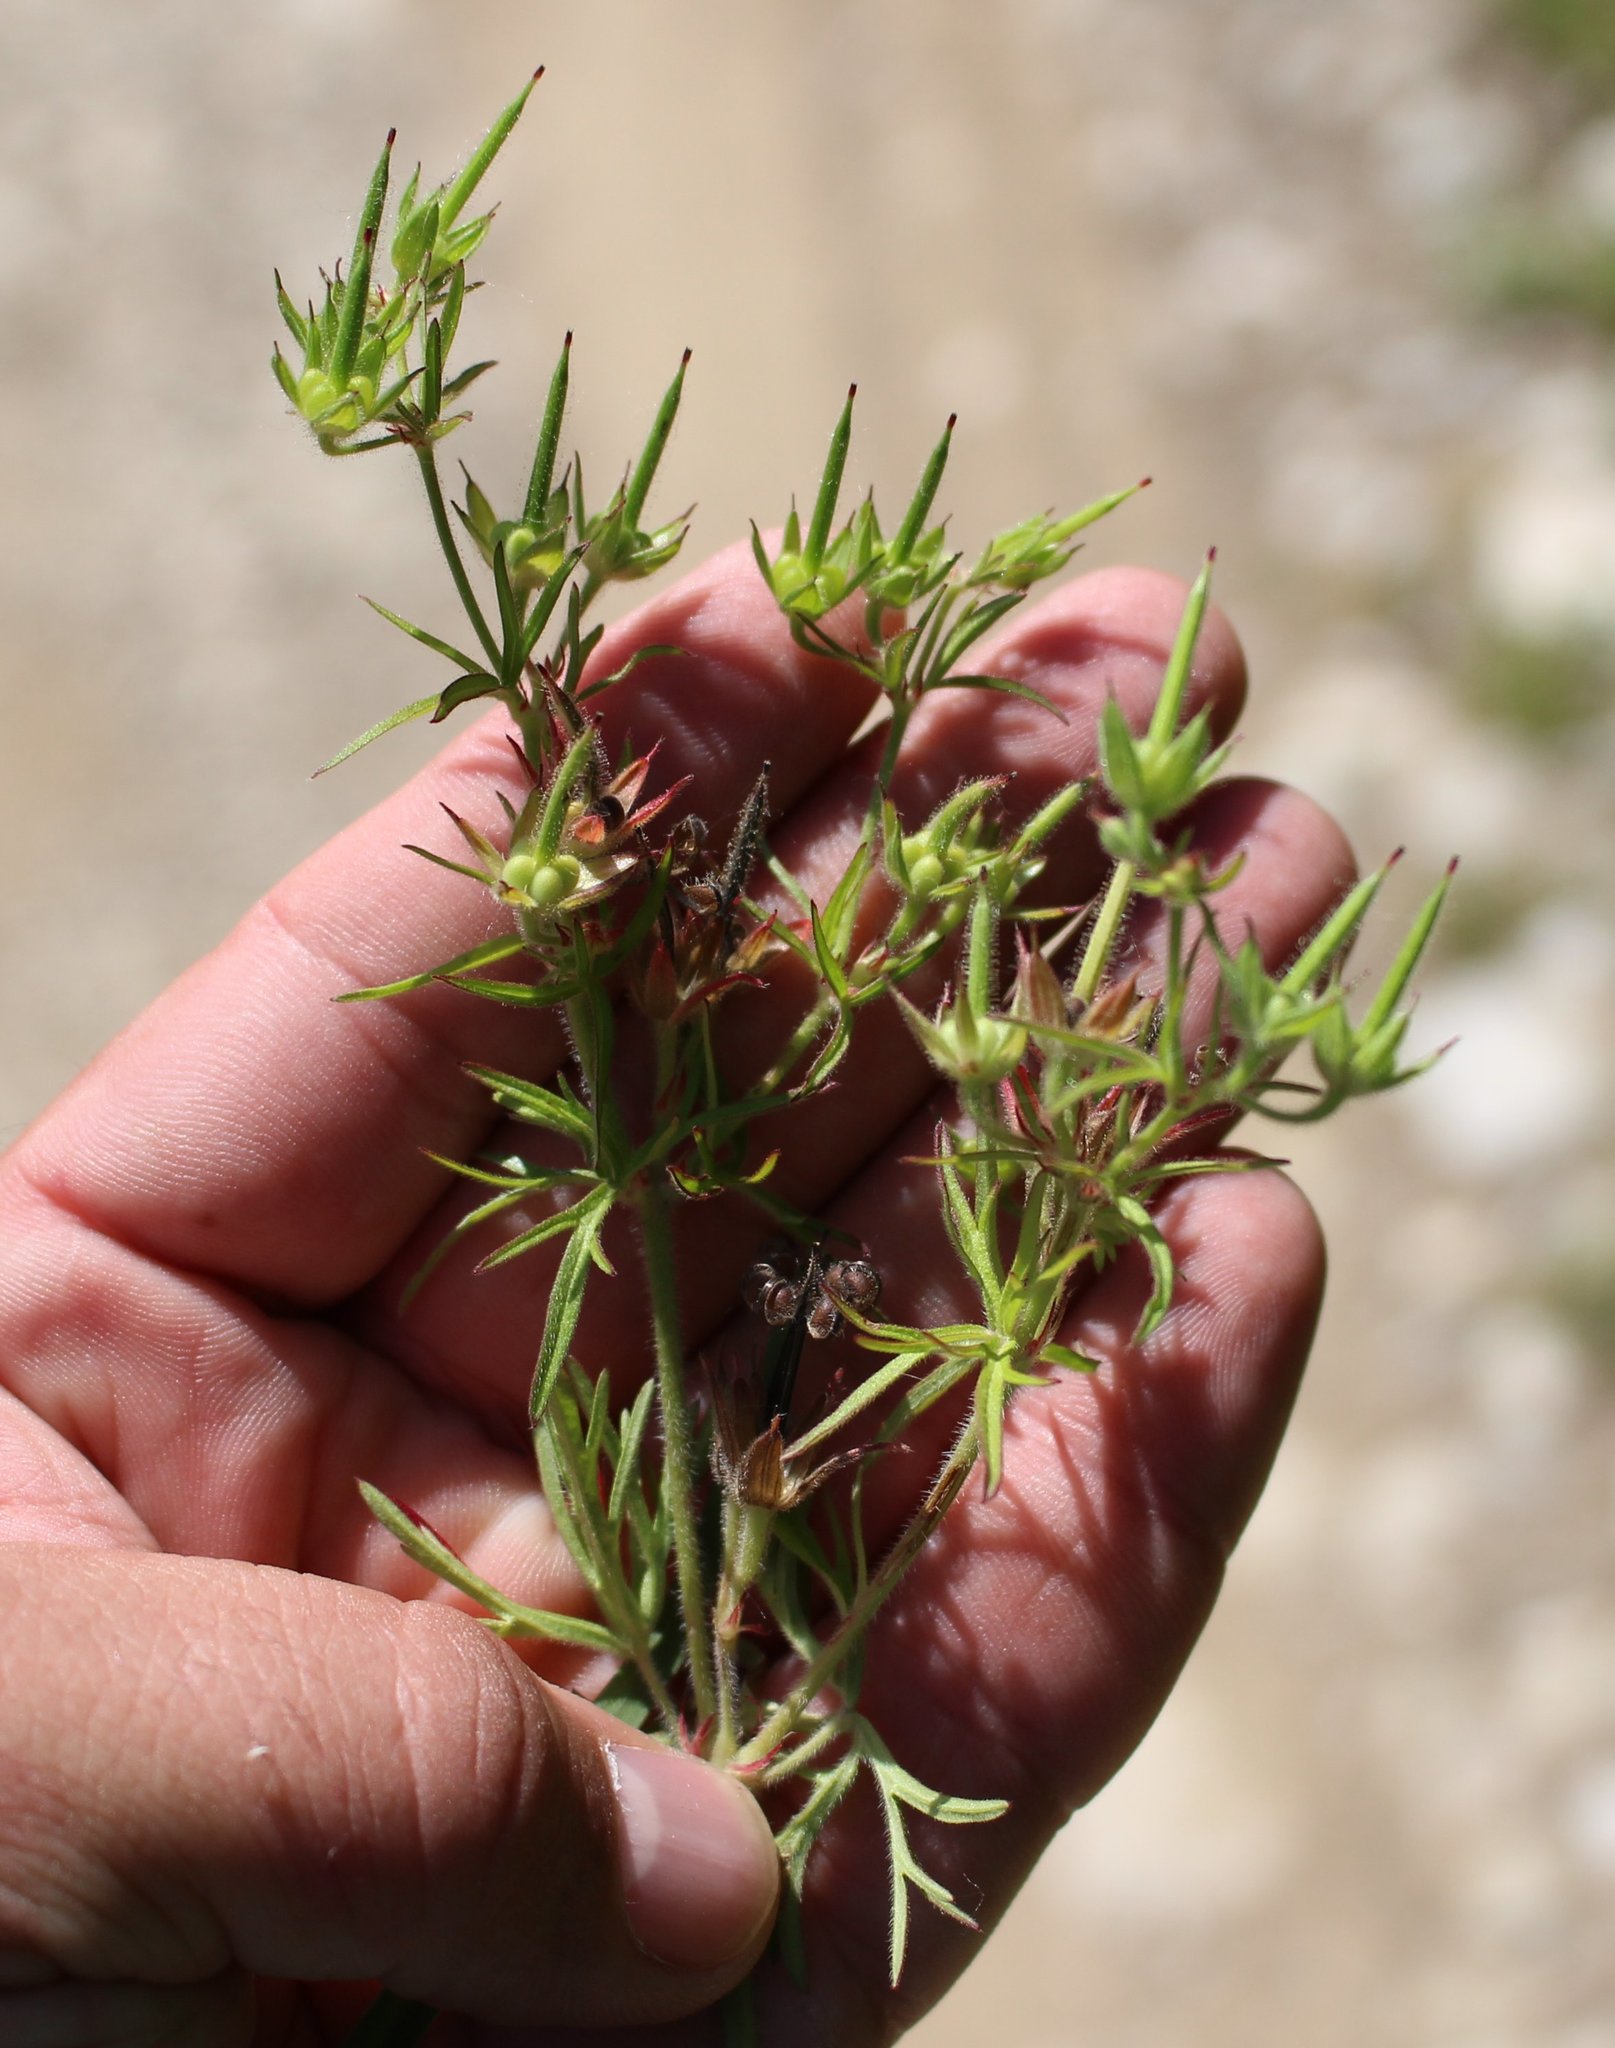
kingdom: Plantae
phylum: Tracheophyta
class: Magnoliopsida
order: Geraniales
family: Geraniaceae
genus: Geranium
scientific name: Geranium dissectum
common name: Cut-leaved crane's-bill
